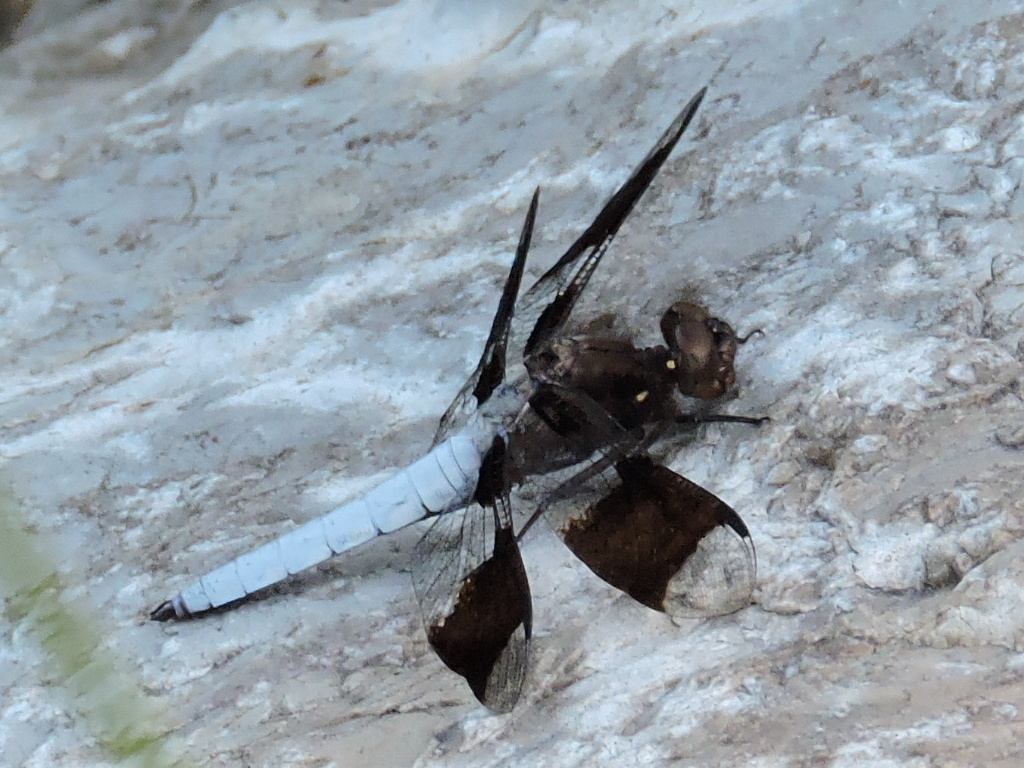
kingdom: Animalia
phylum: Arthropoda
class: Insecta
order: Odonata
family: Libellulidae
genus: Plathemis
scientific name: Plathemis lydia
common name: Common whitetail
